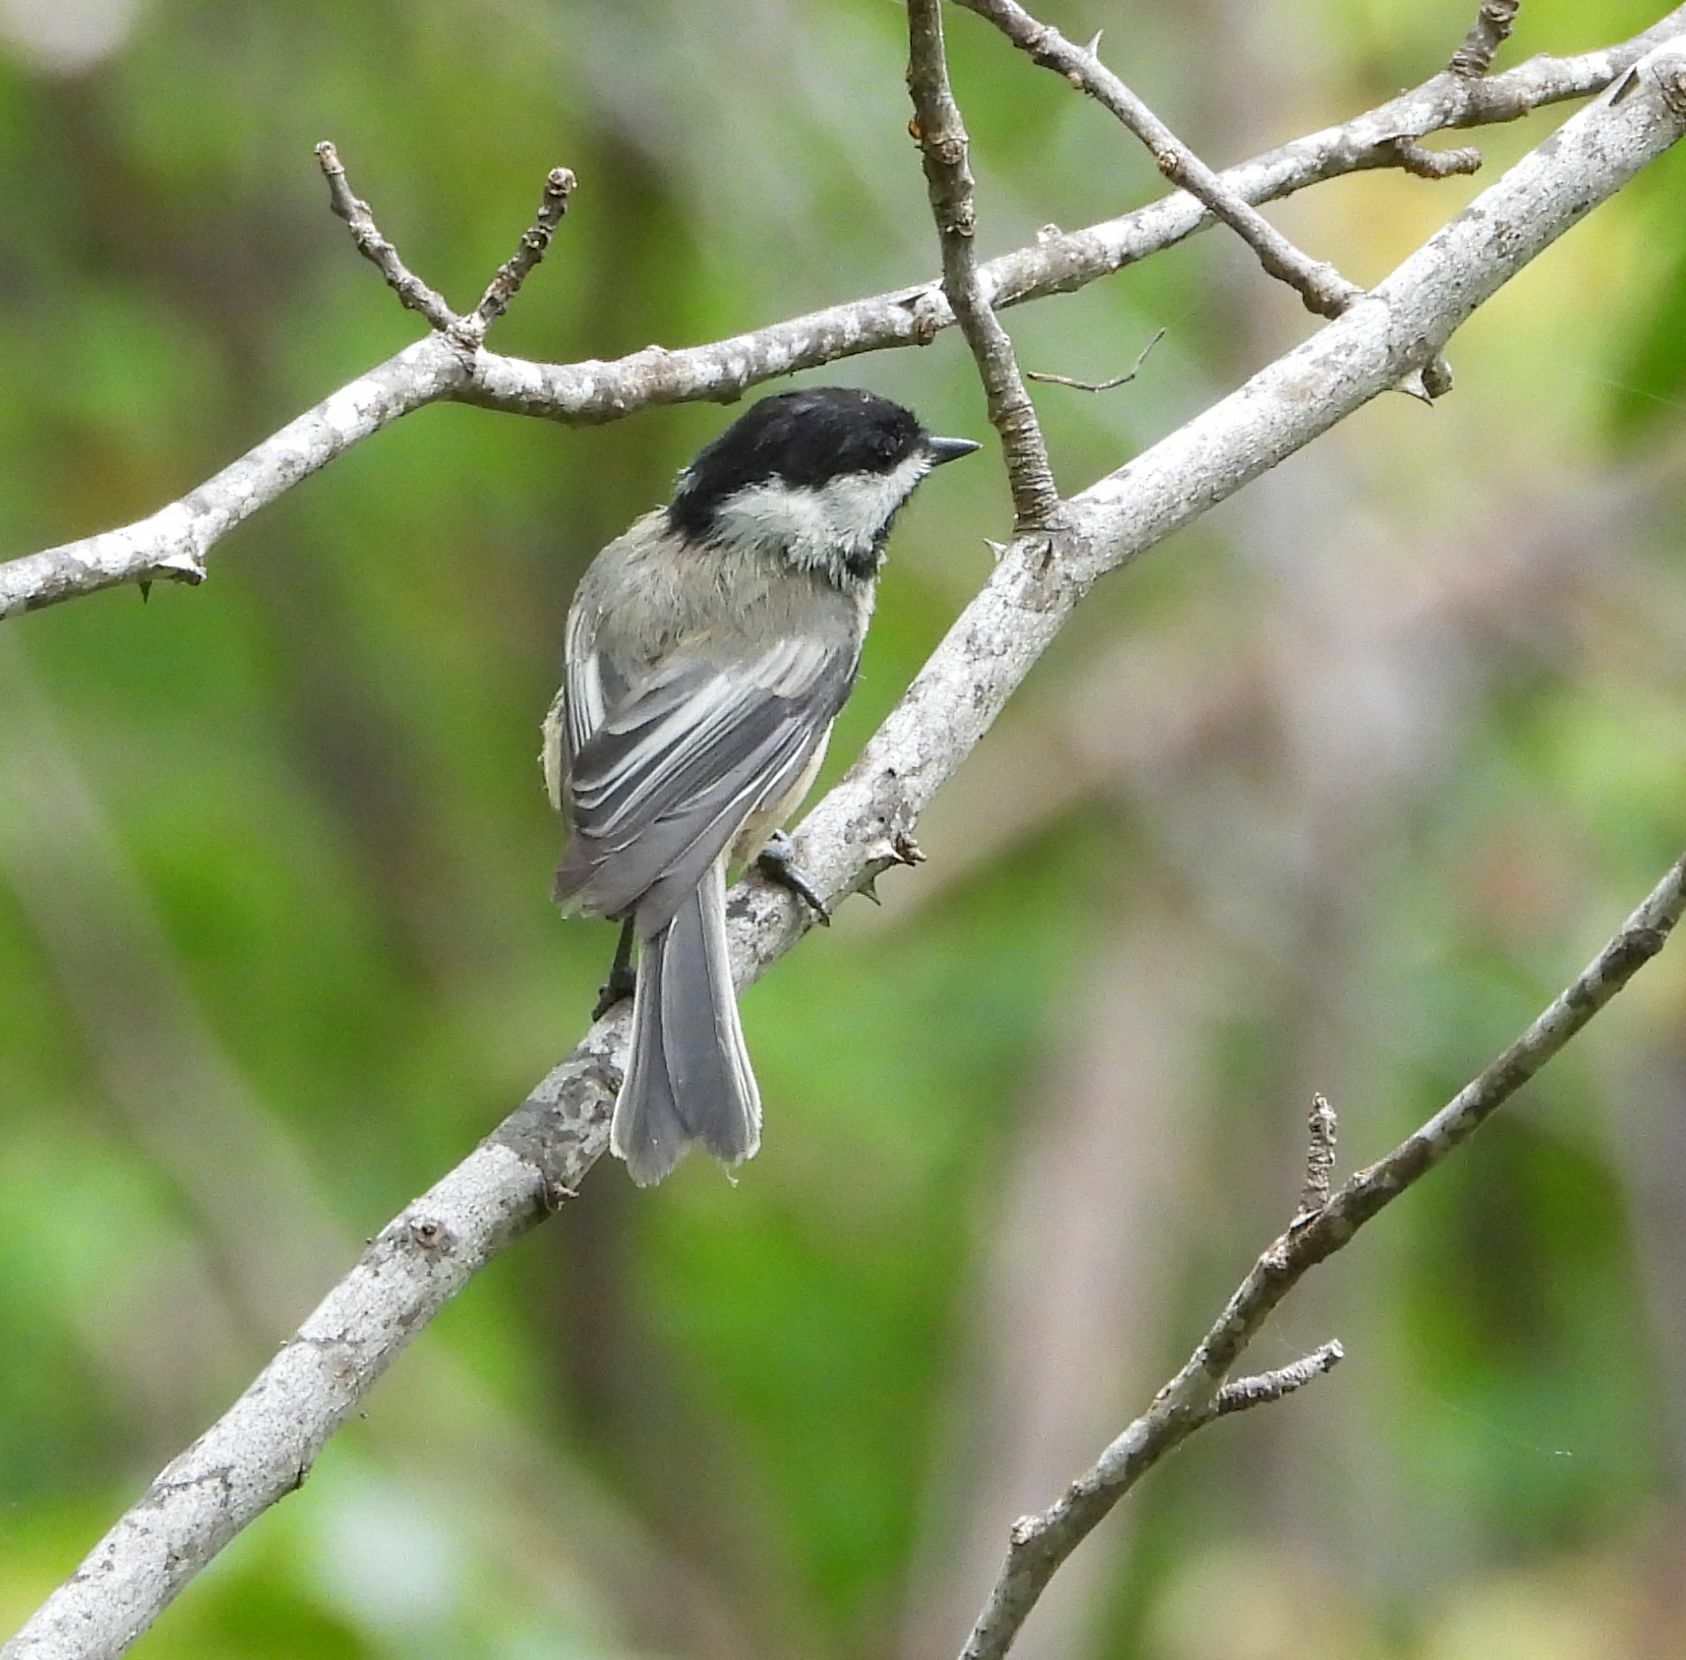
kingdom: Animalia
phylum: Chordata
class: Aves
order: Passeriformes
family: Paridae
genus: Poecile
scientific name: Poecile atricapillus
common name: Black-capped chickadee
